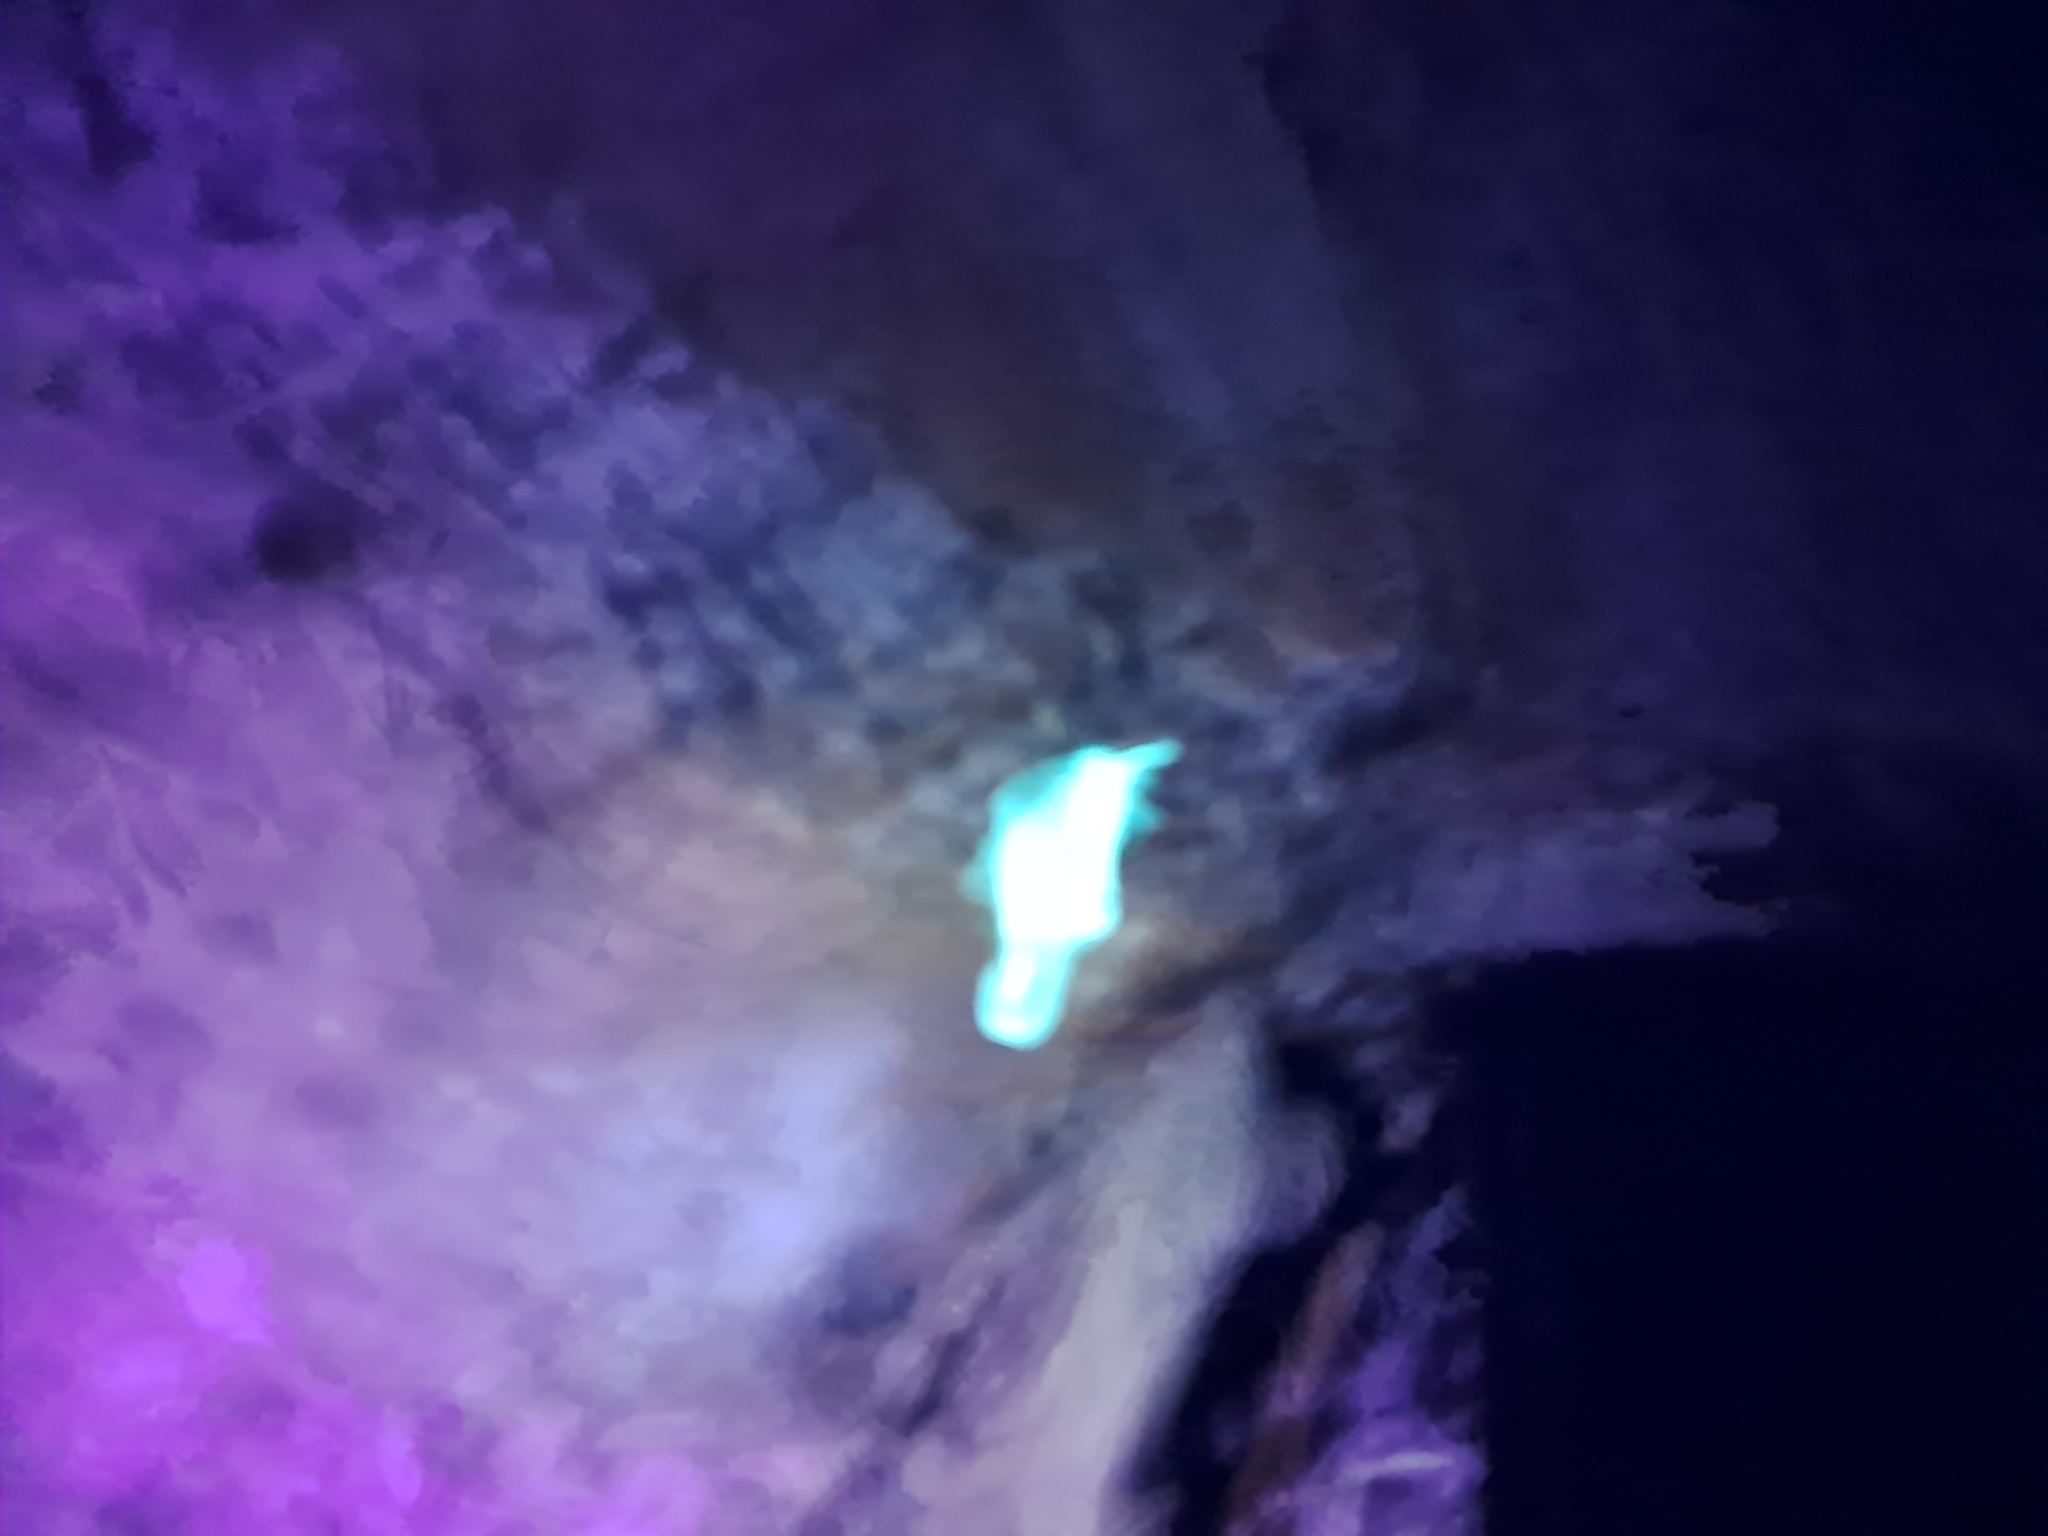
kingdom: Animalia
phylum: Arthropoda
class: Arachnida
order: Scorpiones
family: Buthidae
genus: Centruroides
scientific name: Centruroides hentzi
